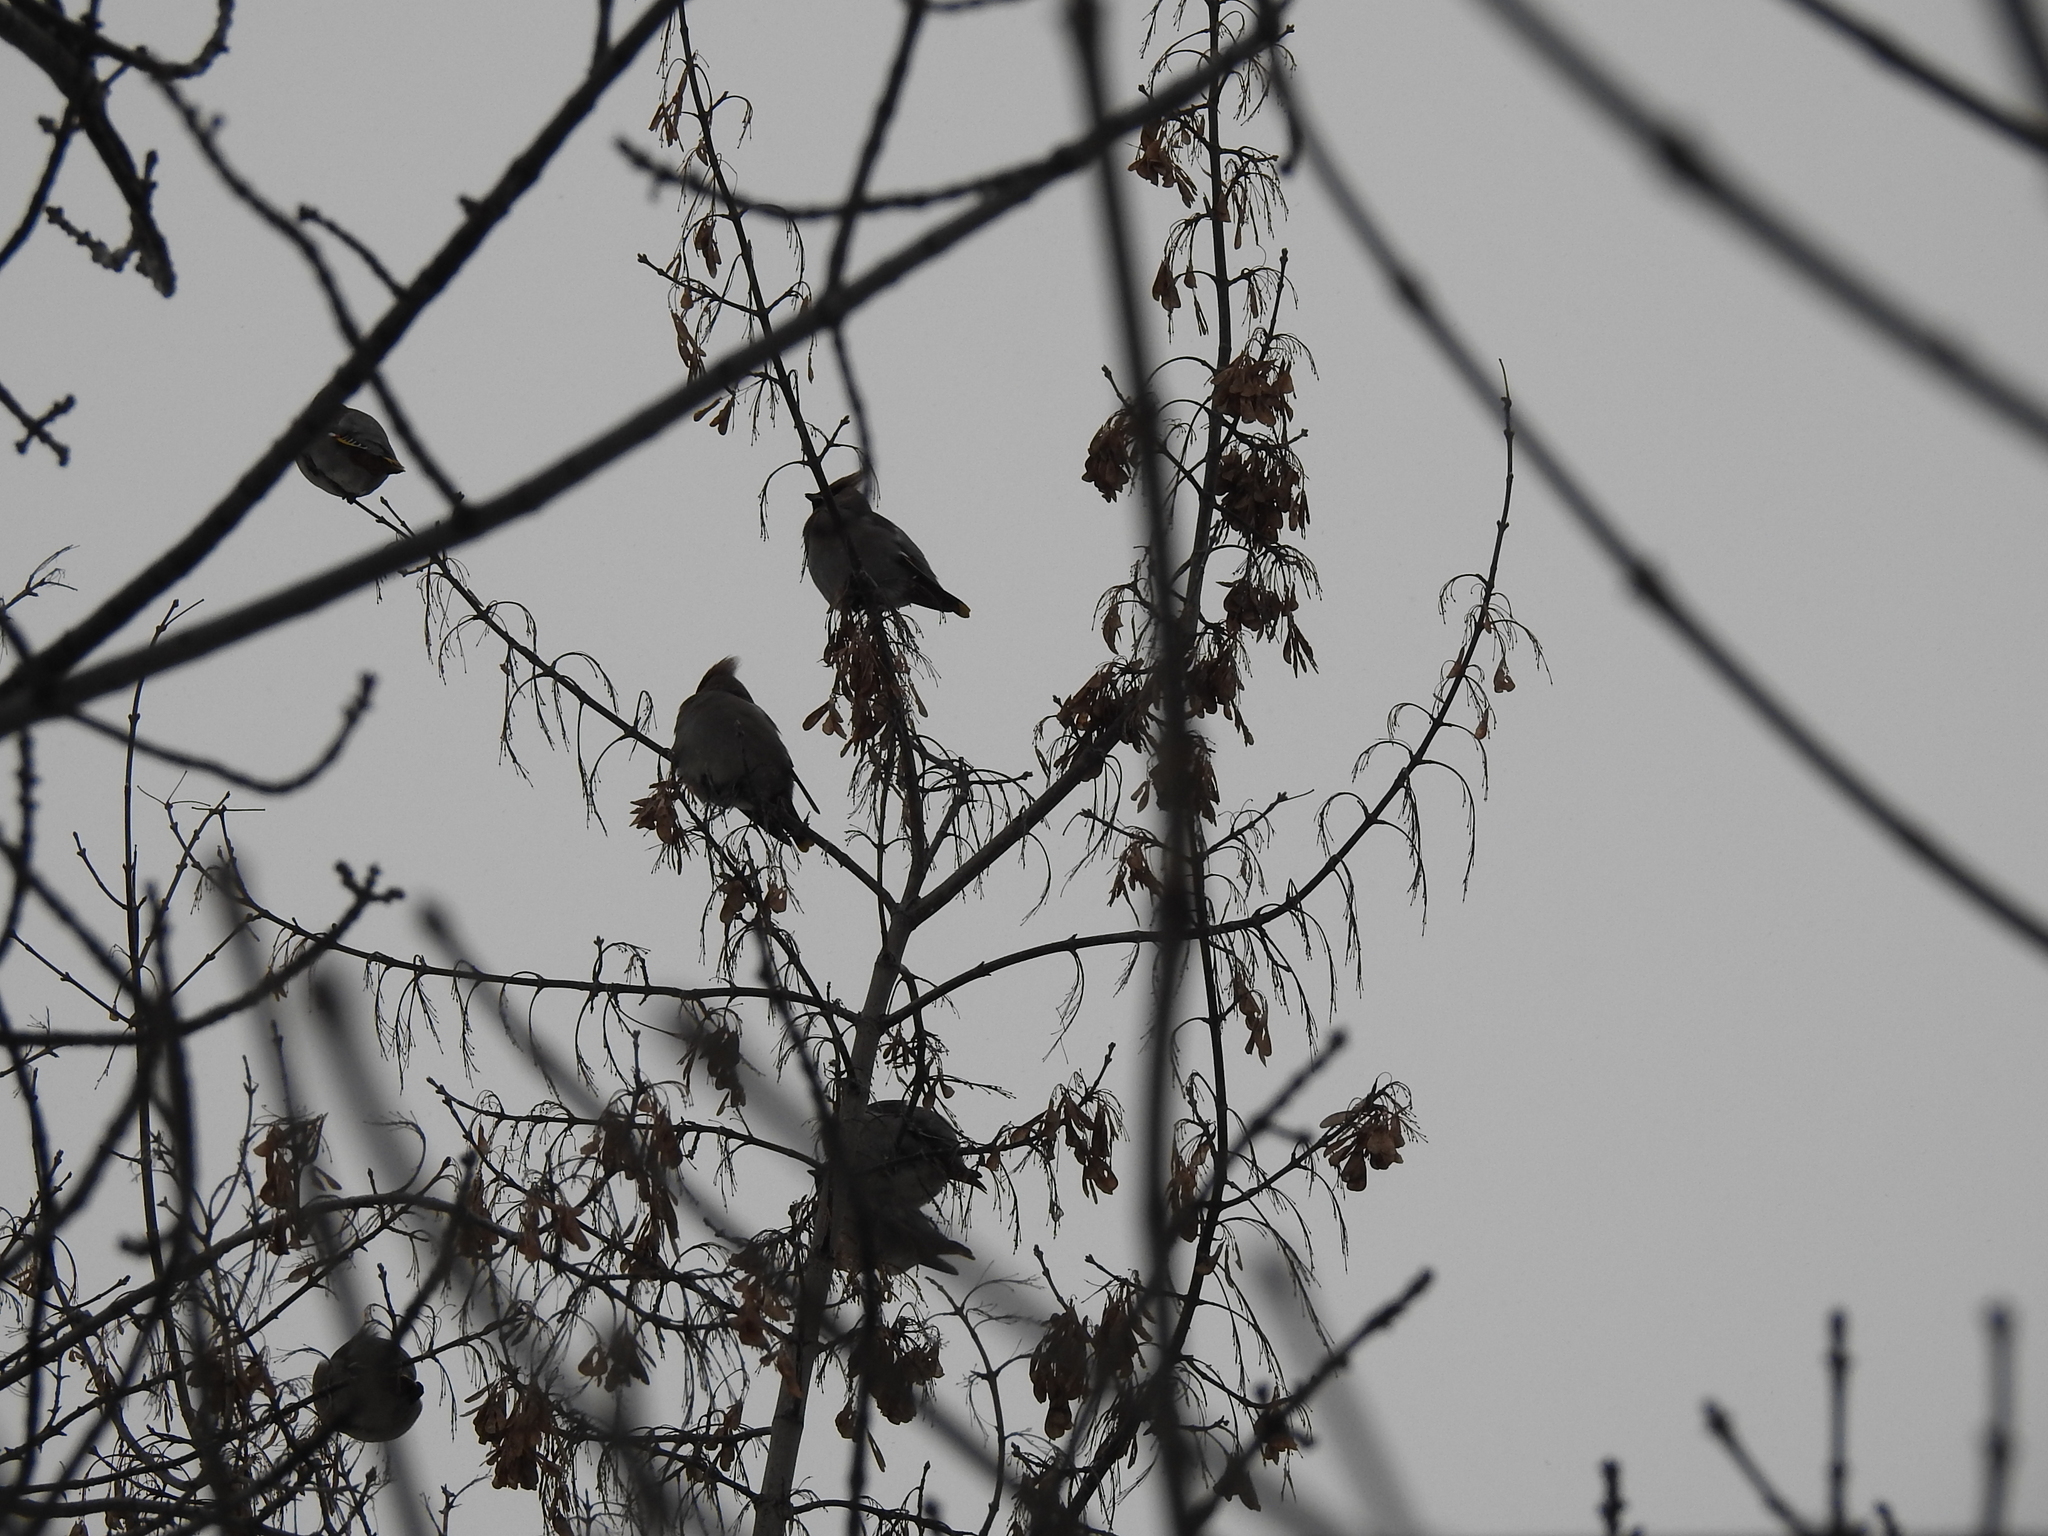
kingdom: Animalia
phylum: Chordata
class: Aves
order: Passeriformes
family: Bombycillidae
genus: Bombycilla
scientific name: Bombycilla garrulus
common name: Bohemian waxwing
